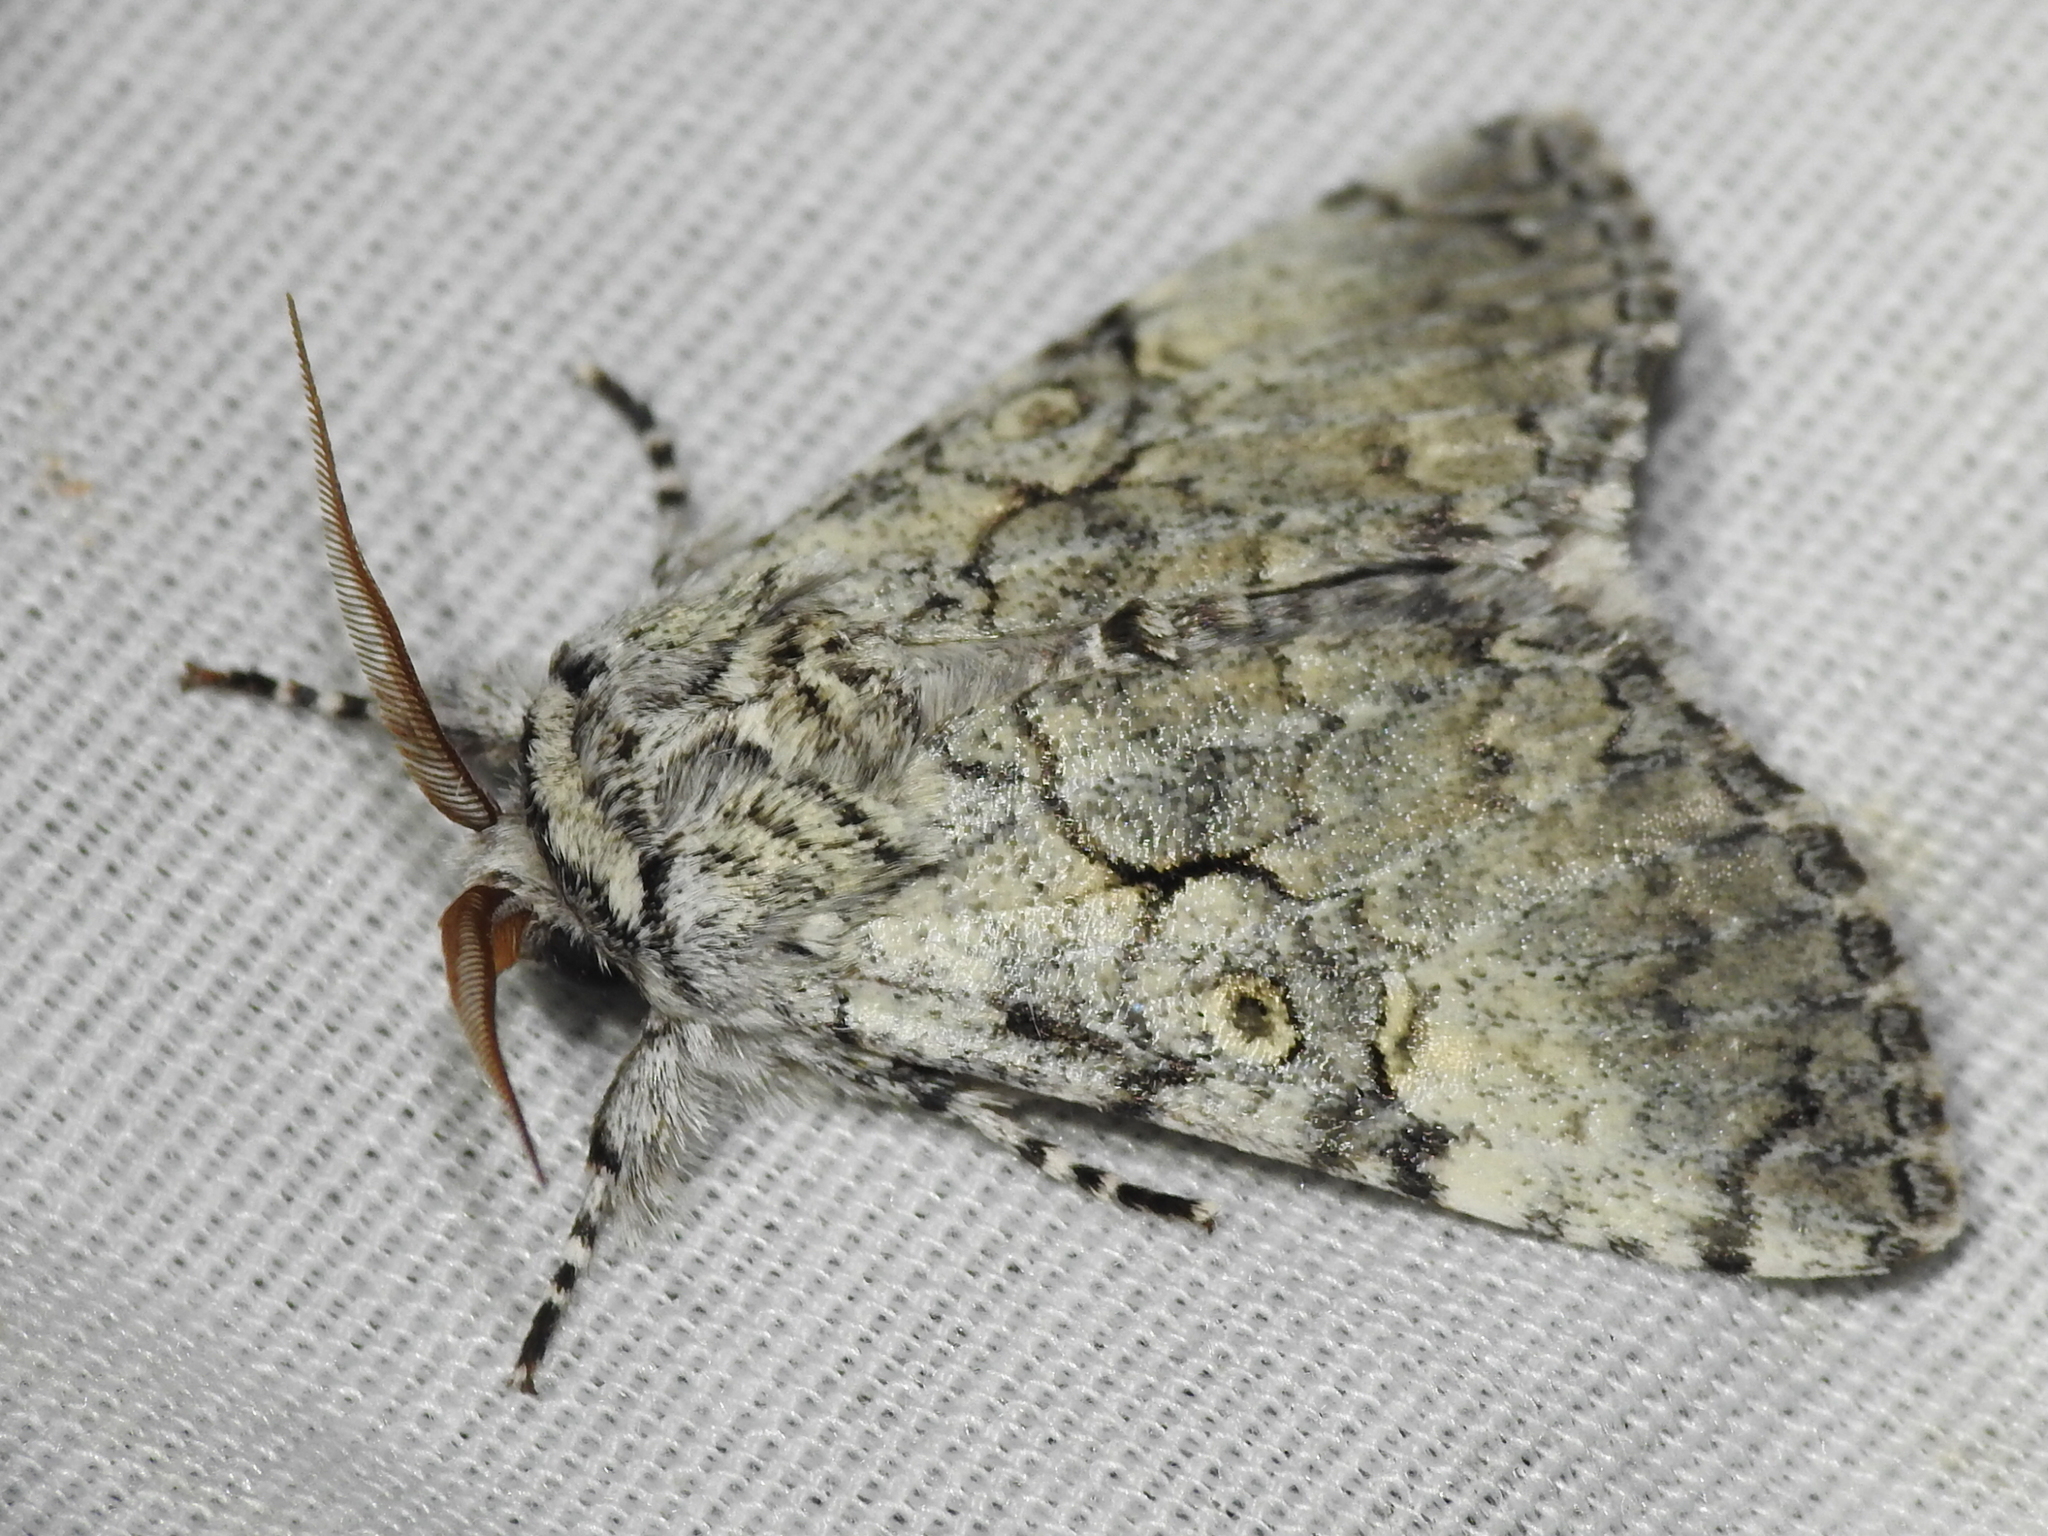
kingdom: Animalia
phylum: Arthropoda
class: Insecta
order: Lepidoptera
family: Noctuidae
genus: Charadra
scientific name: Charadra deridens
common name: Marbled tuffet
